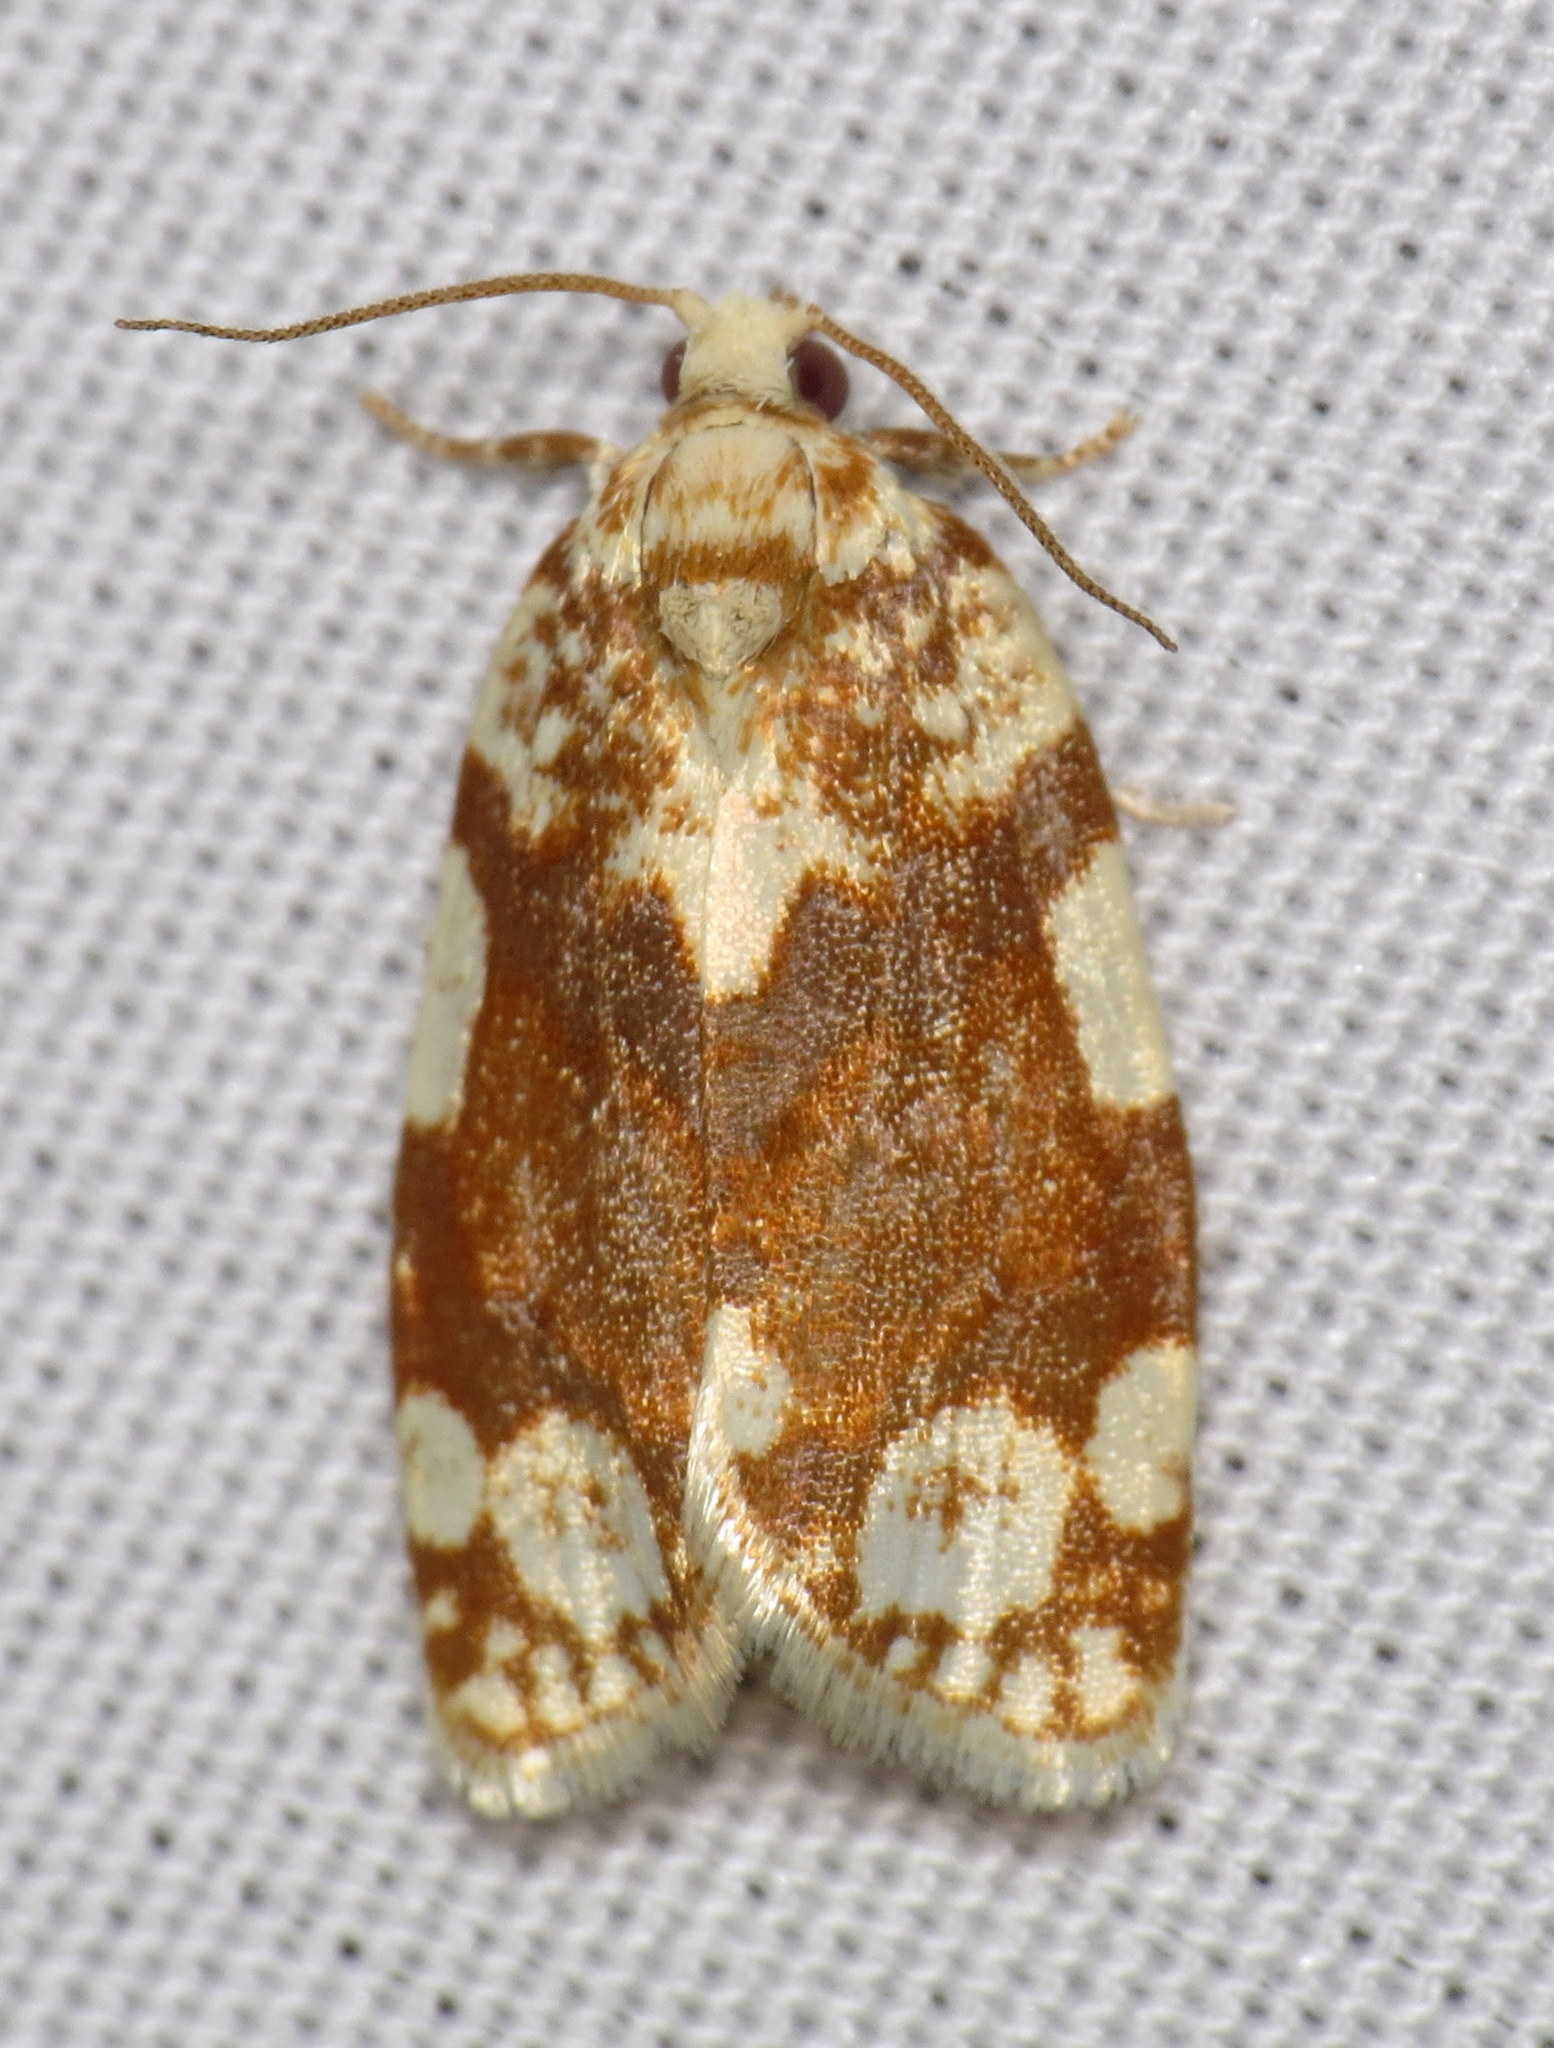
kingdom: Animalia
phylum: Arthropoda
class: Insecta
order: Lepidoptera
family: Tortricidae
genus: Argyrotaenia
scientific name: Argyrotaenia alisellana
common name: White-spotted leafroller moth
